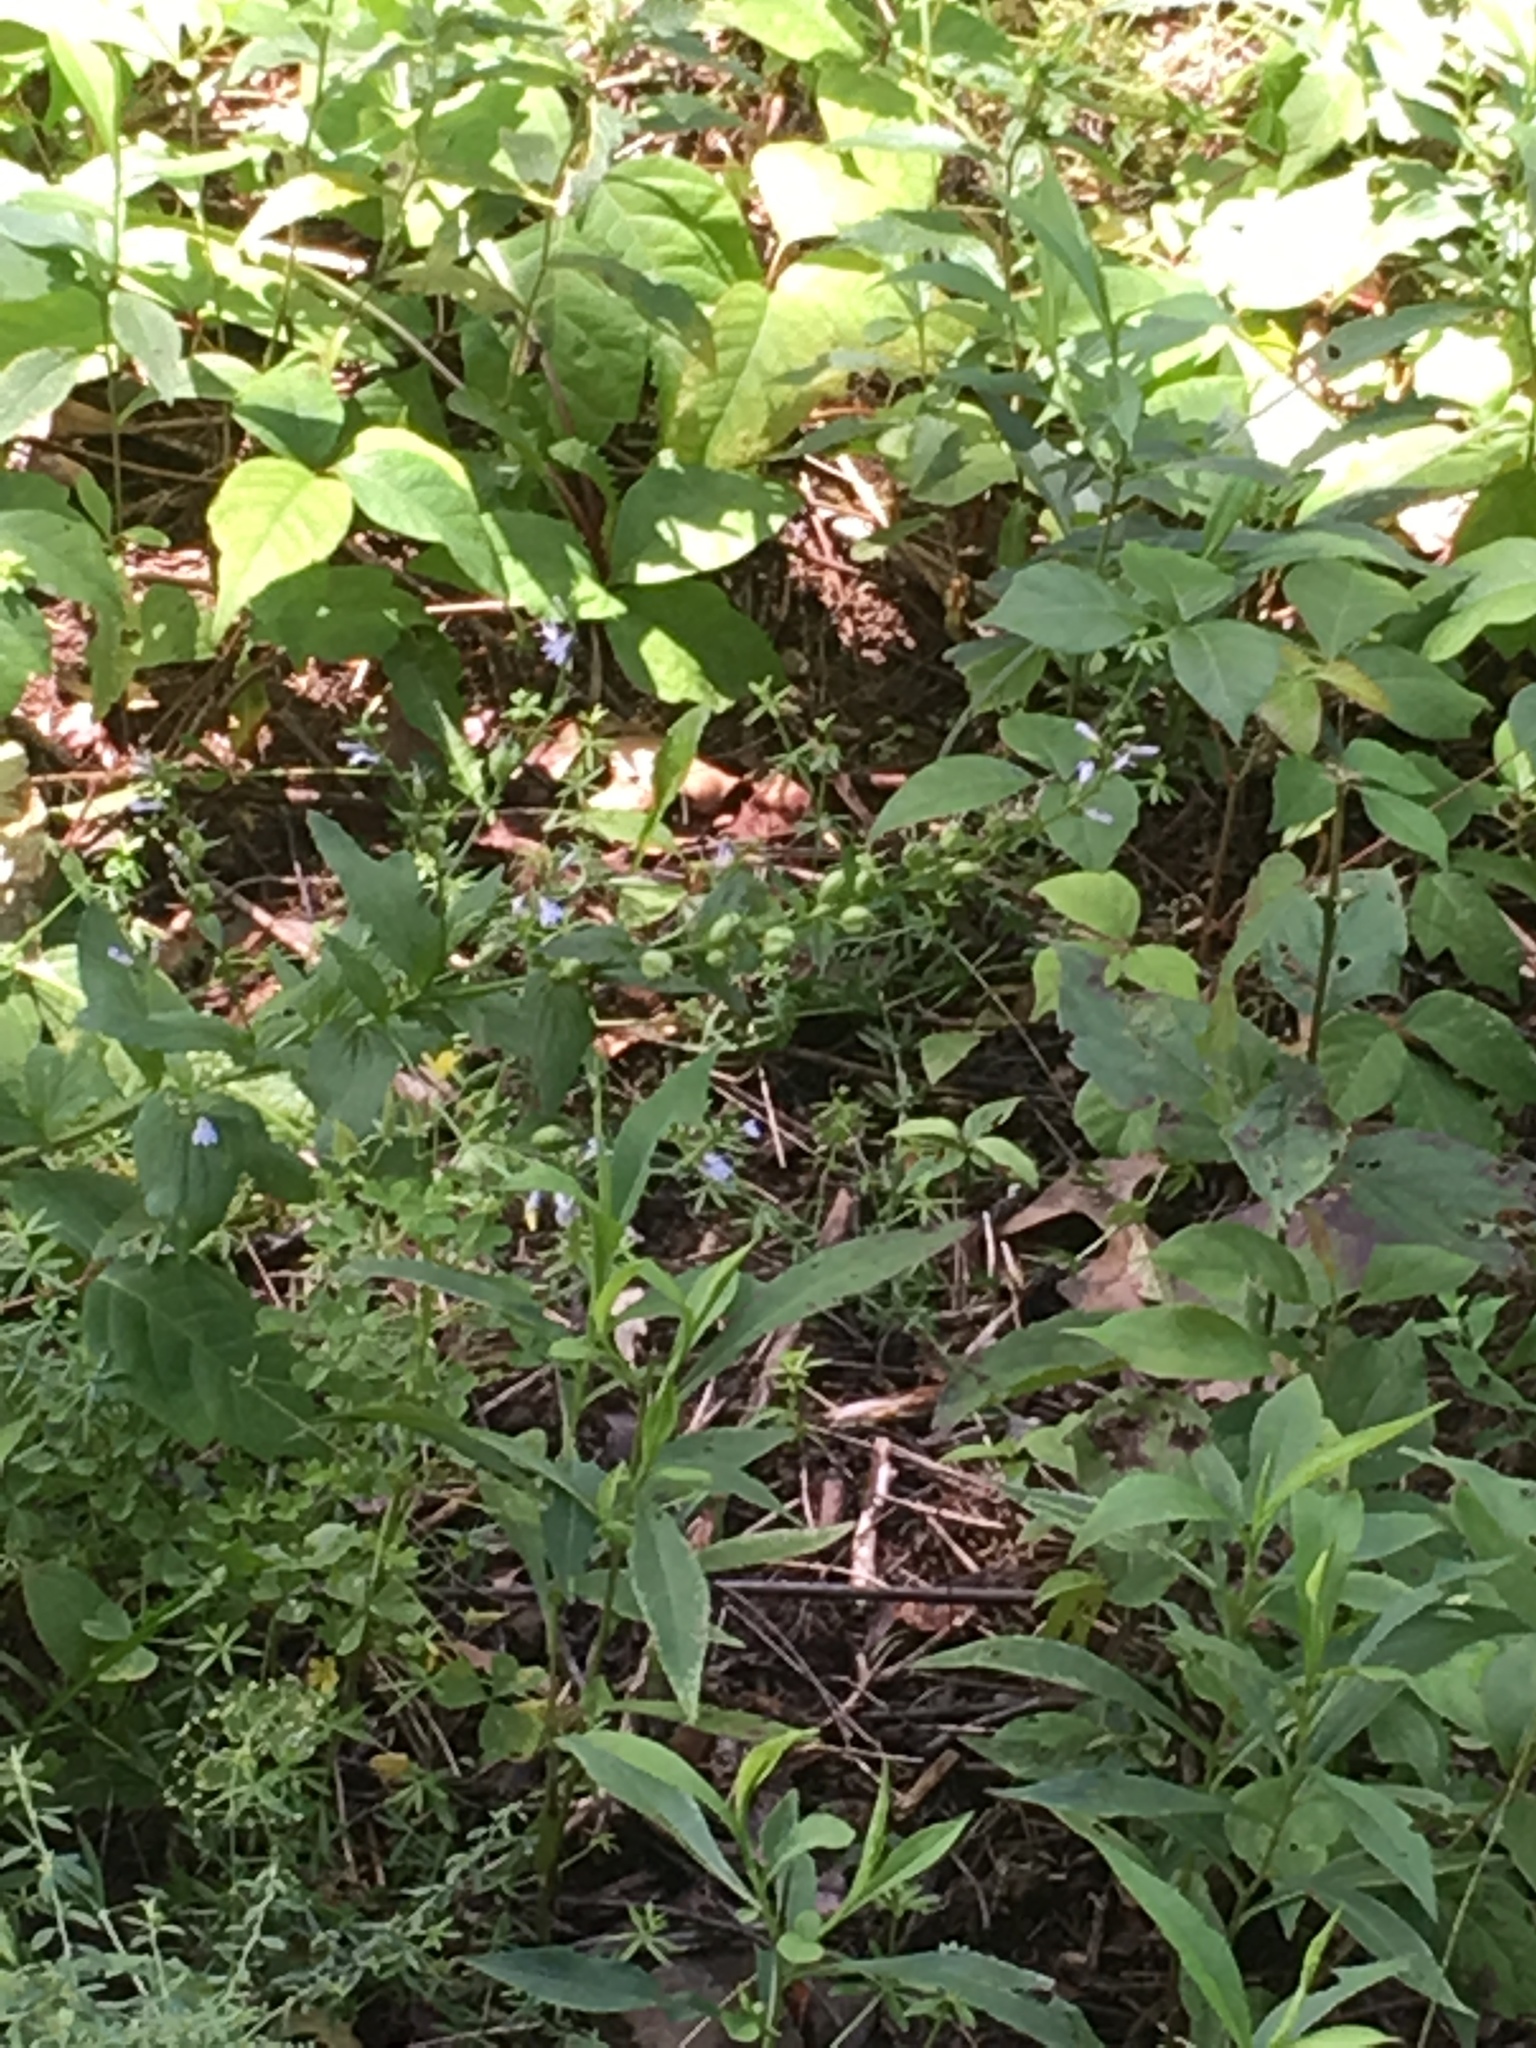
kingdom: Plantae
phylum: Tracheophyta
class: Magnoliopsida
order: Asterales
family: Campanulaceae
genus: Lobelia
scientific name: Lobelia inflata
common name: Indian tobacco
